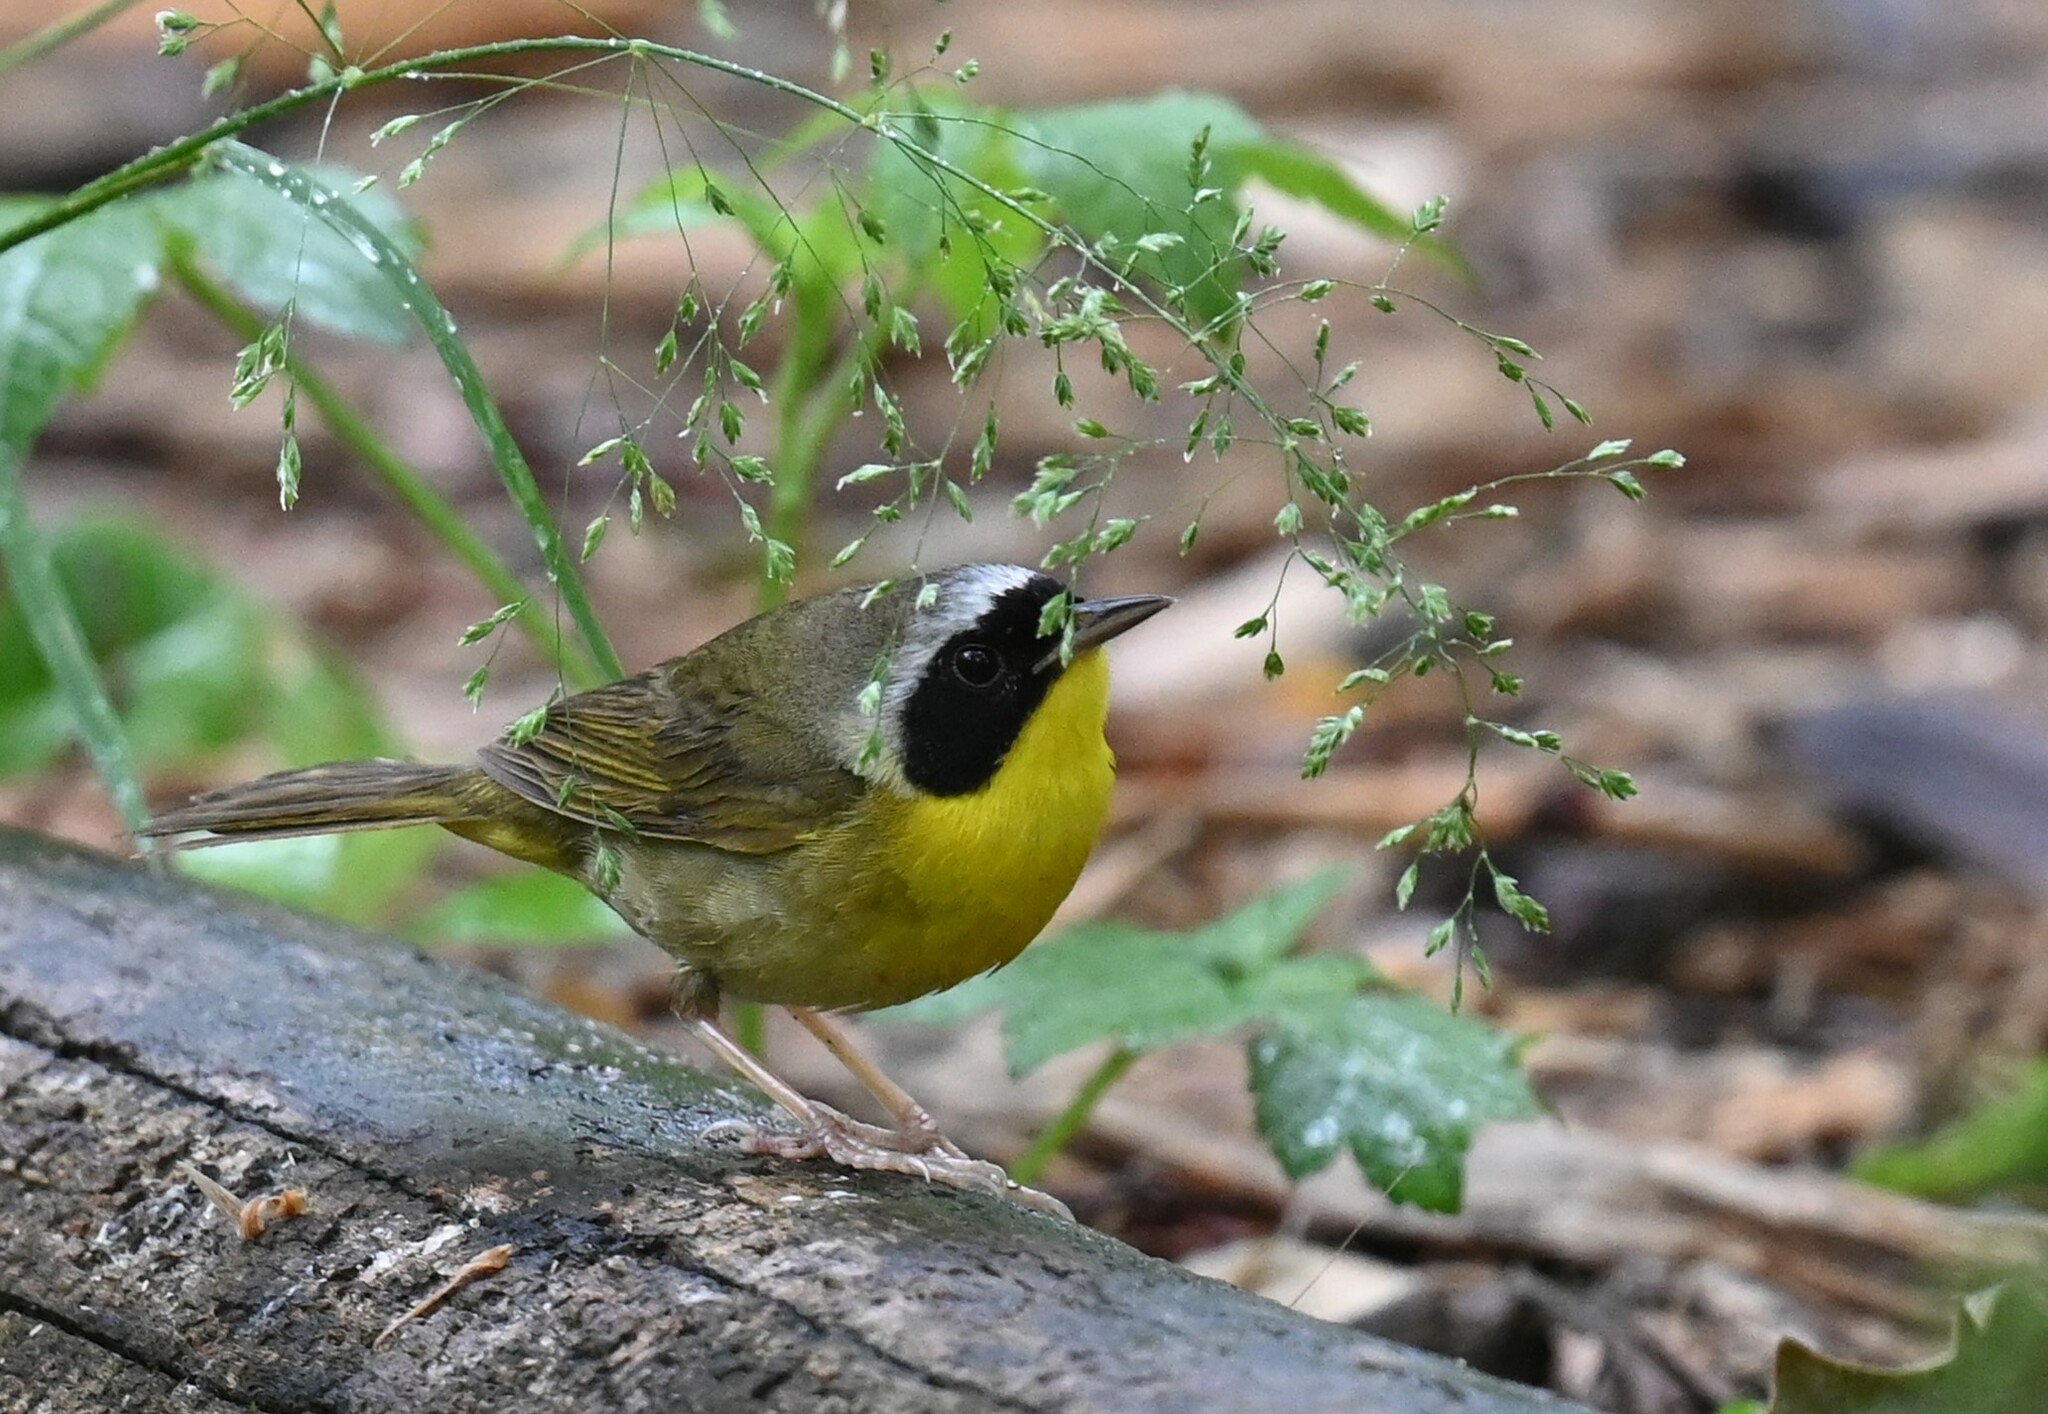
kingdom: Animalia
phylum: Chordata
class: Aves
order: Passeriformes
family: Parulidae
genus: Geothlypis
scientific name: Geothlypis trichas
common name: Common yellowthroat
